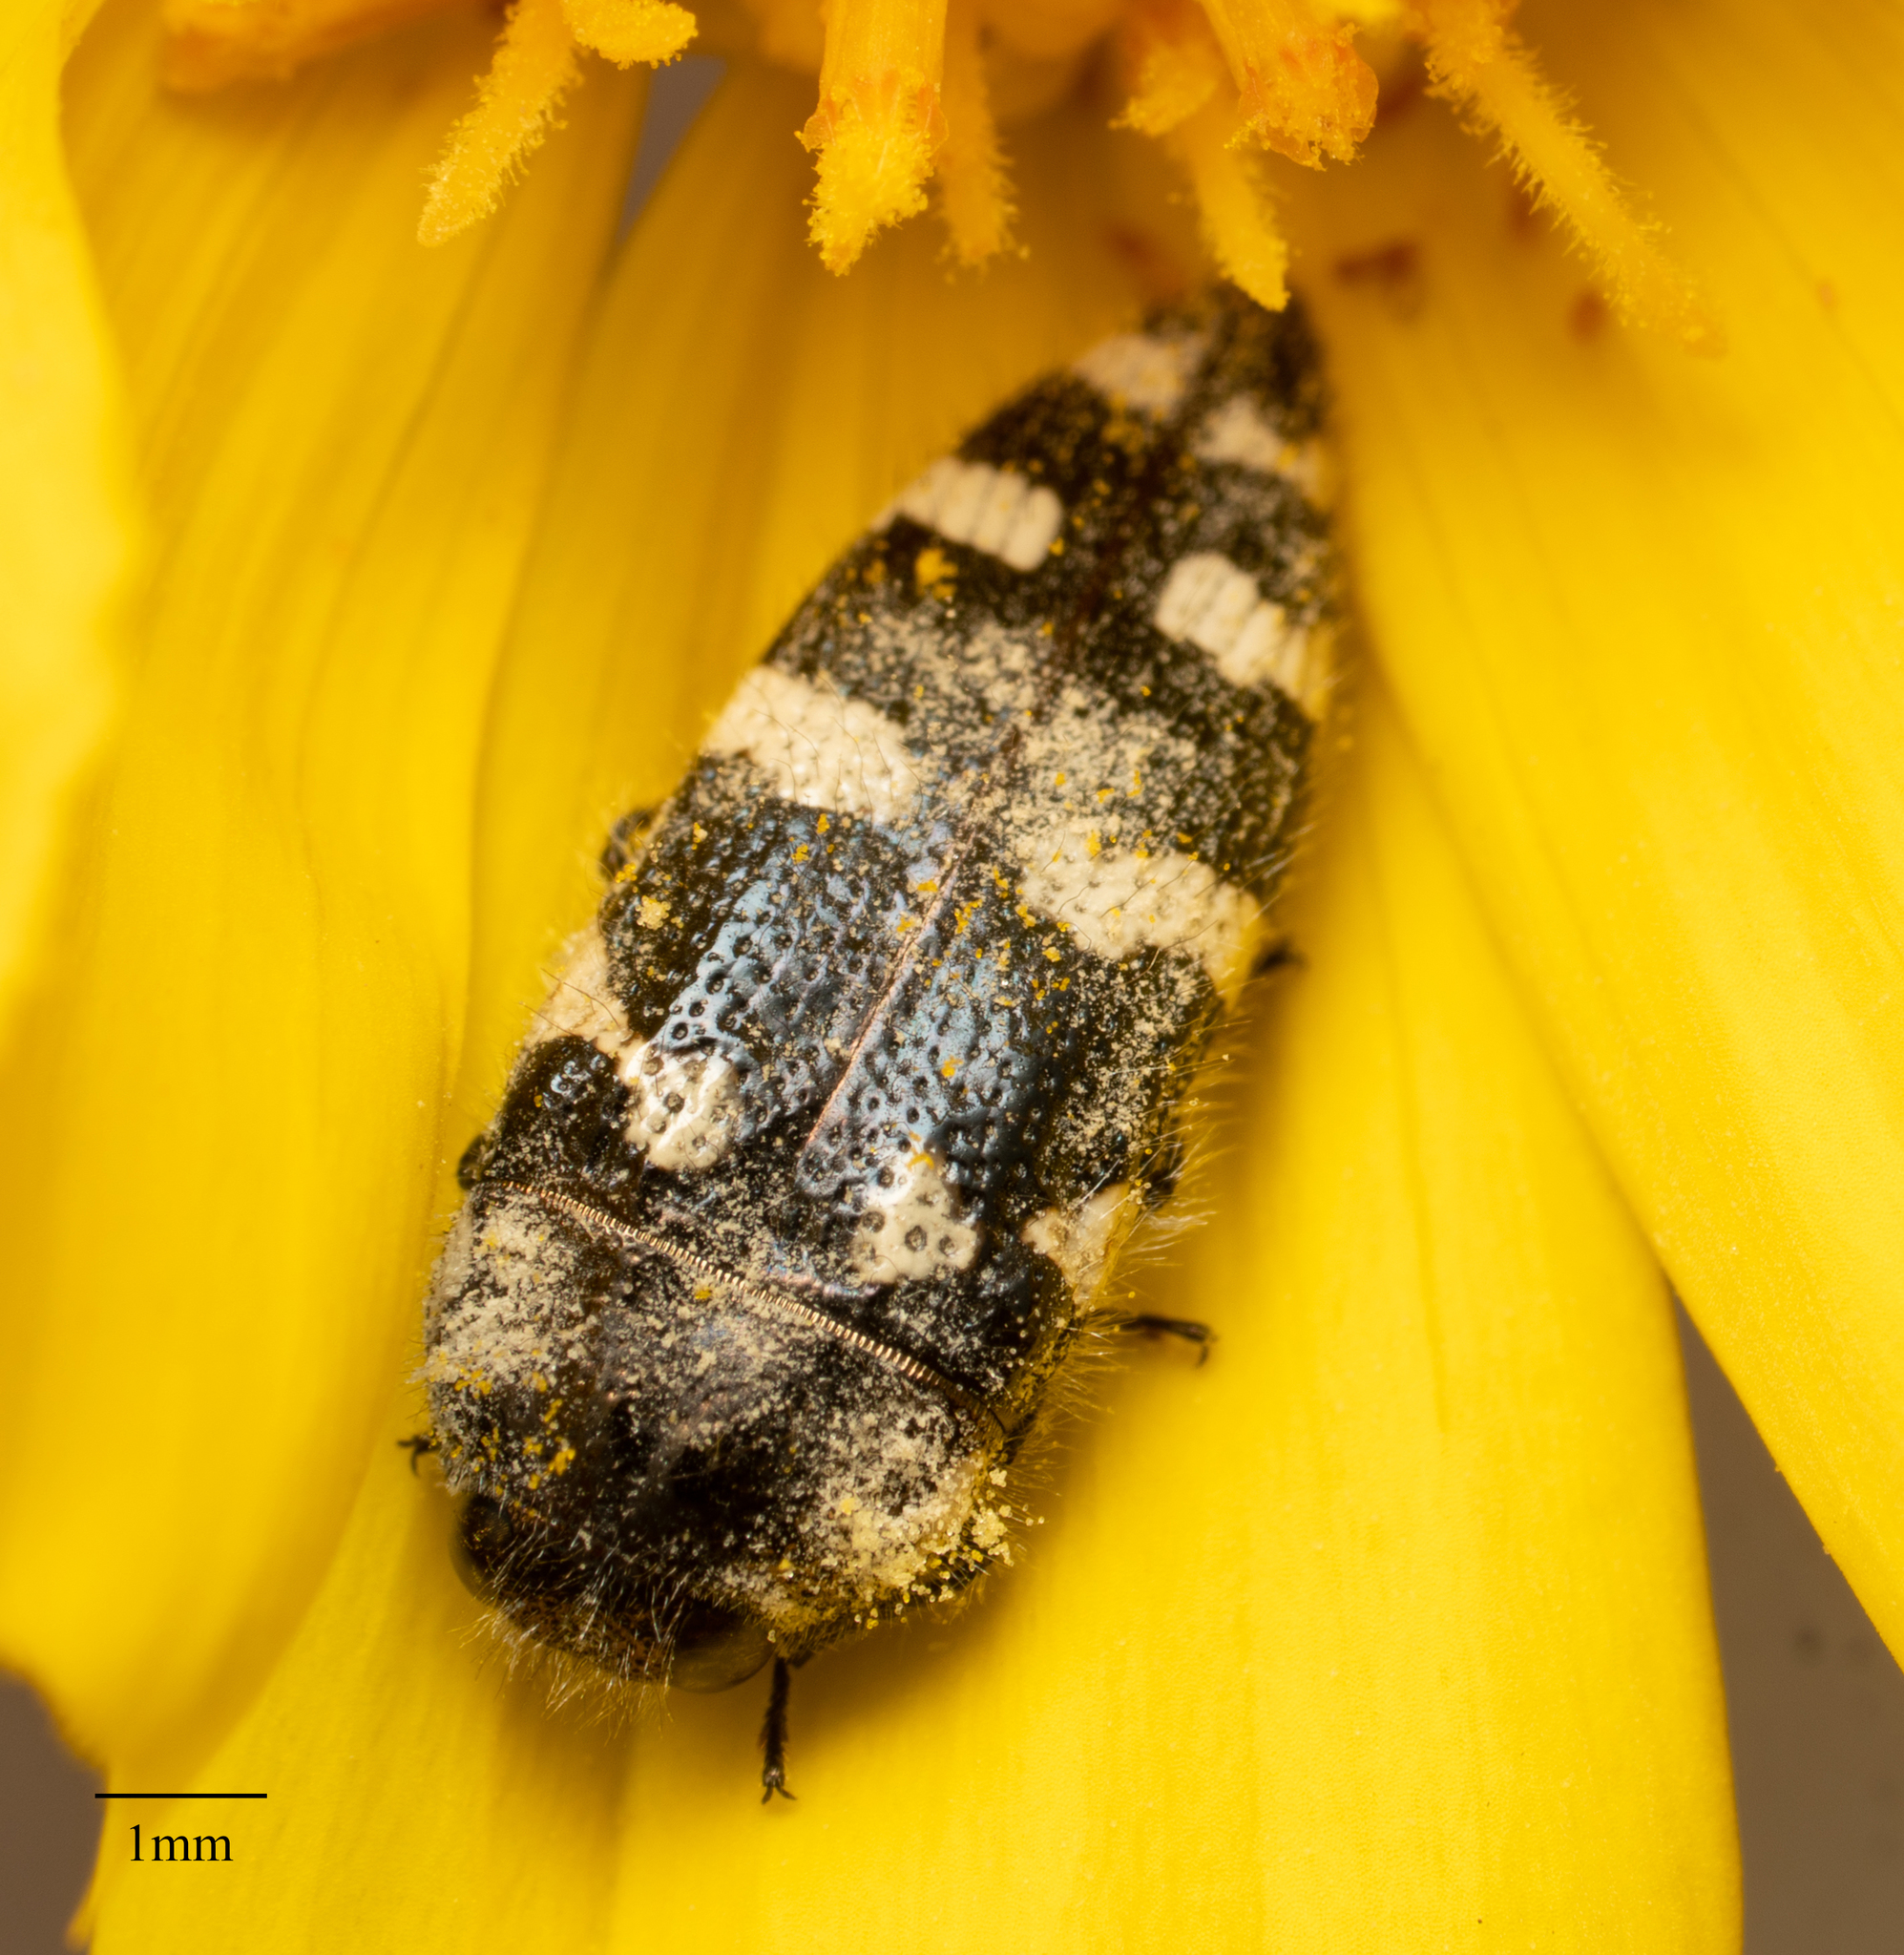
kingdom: Animalia
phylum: Arthropoda
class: Insecta
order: Coleoptera
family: Buprestidae
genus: Acmaeodera
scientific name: Acmaeodera tuta
